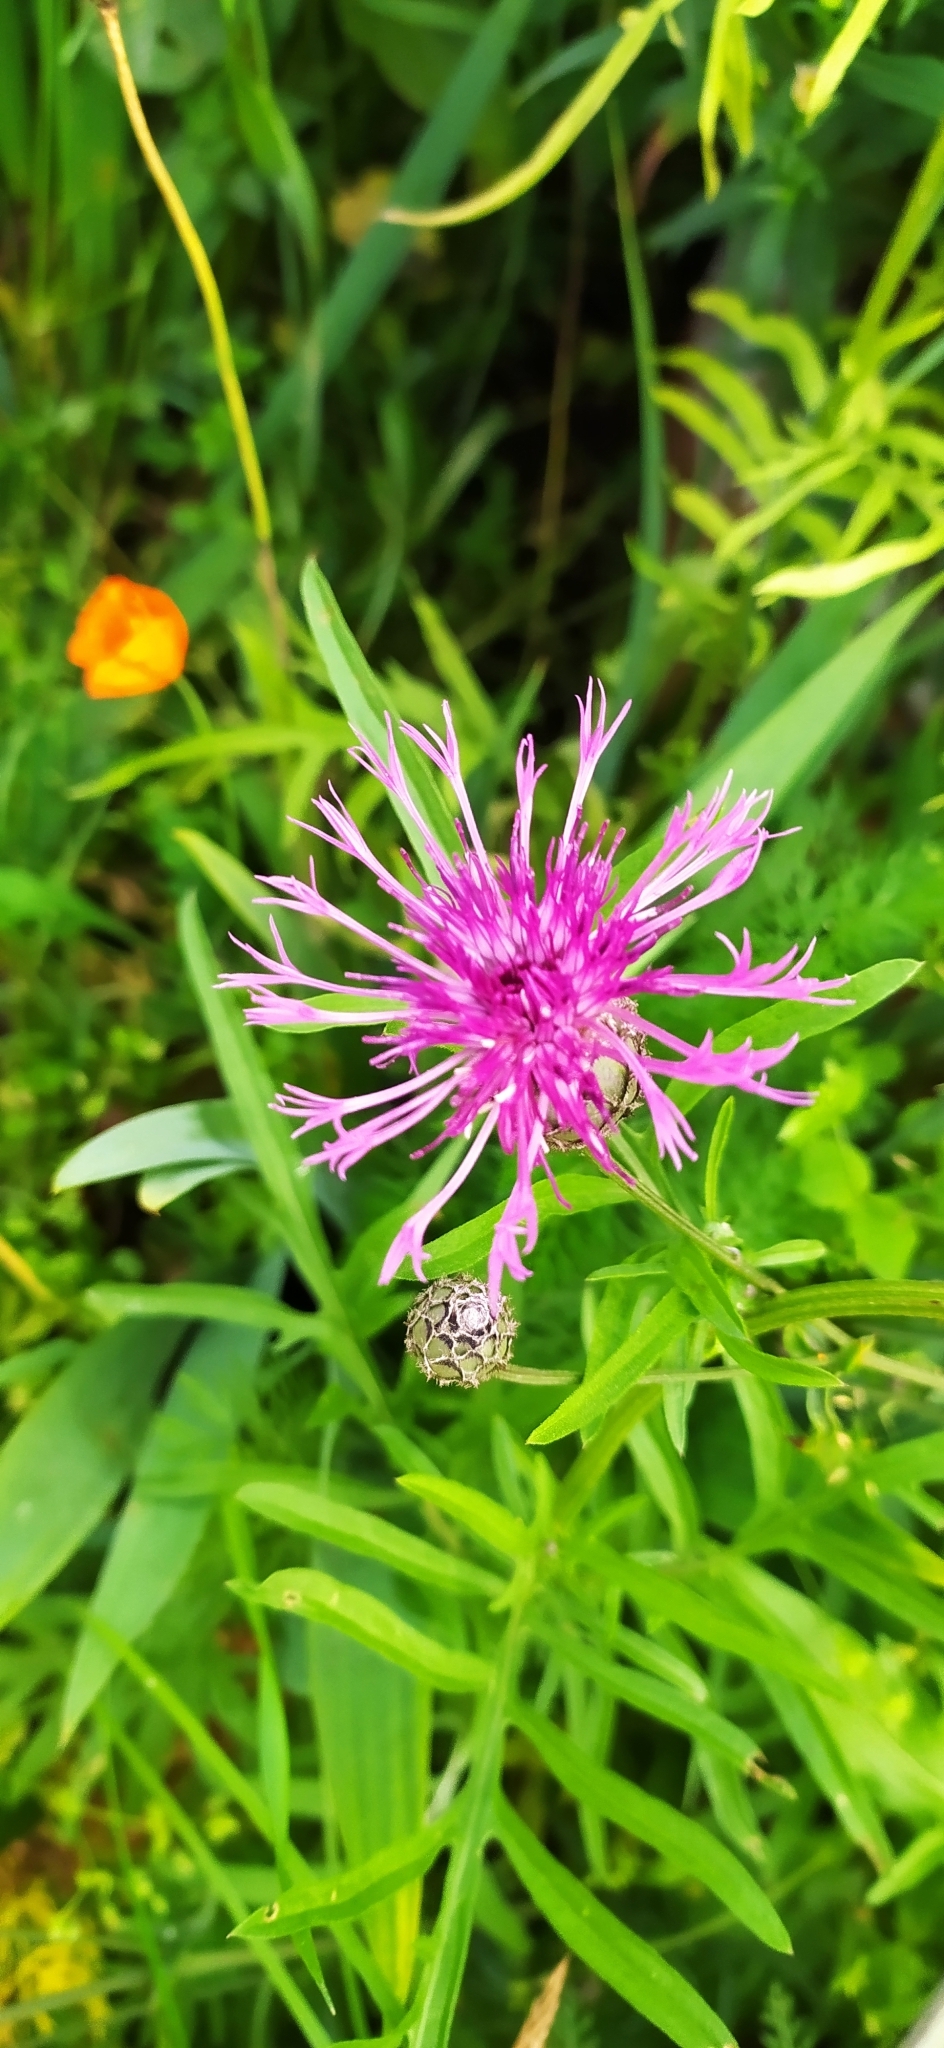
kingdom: Plantae
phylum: Tracheophyta
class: Magnoliopsida
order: Asterales
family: Asteraceae
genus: Centaurea
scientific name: Centaurea scabiosa
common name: Greater knapweed
